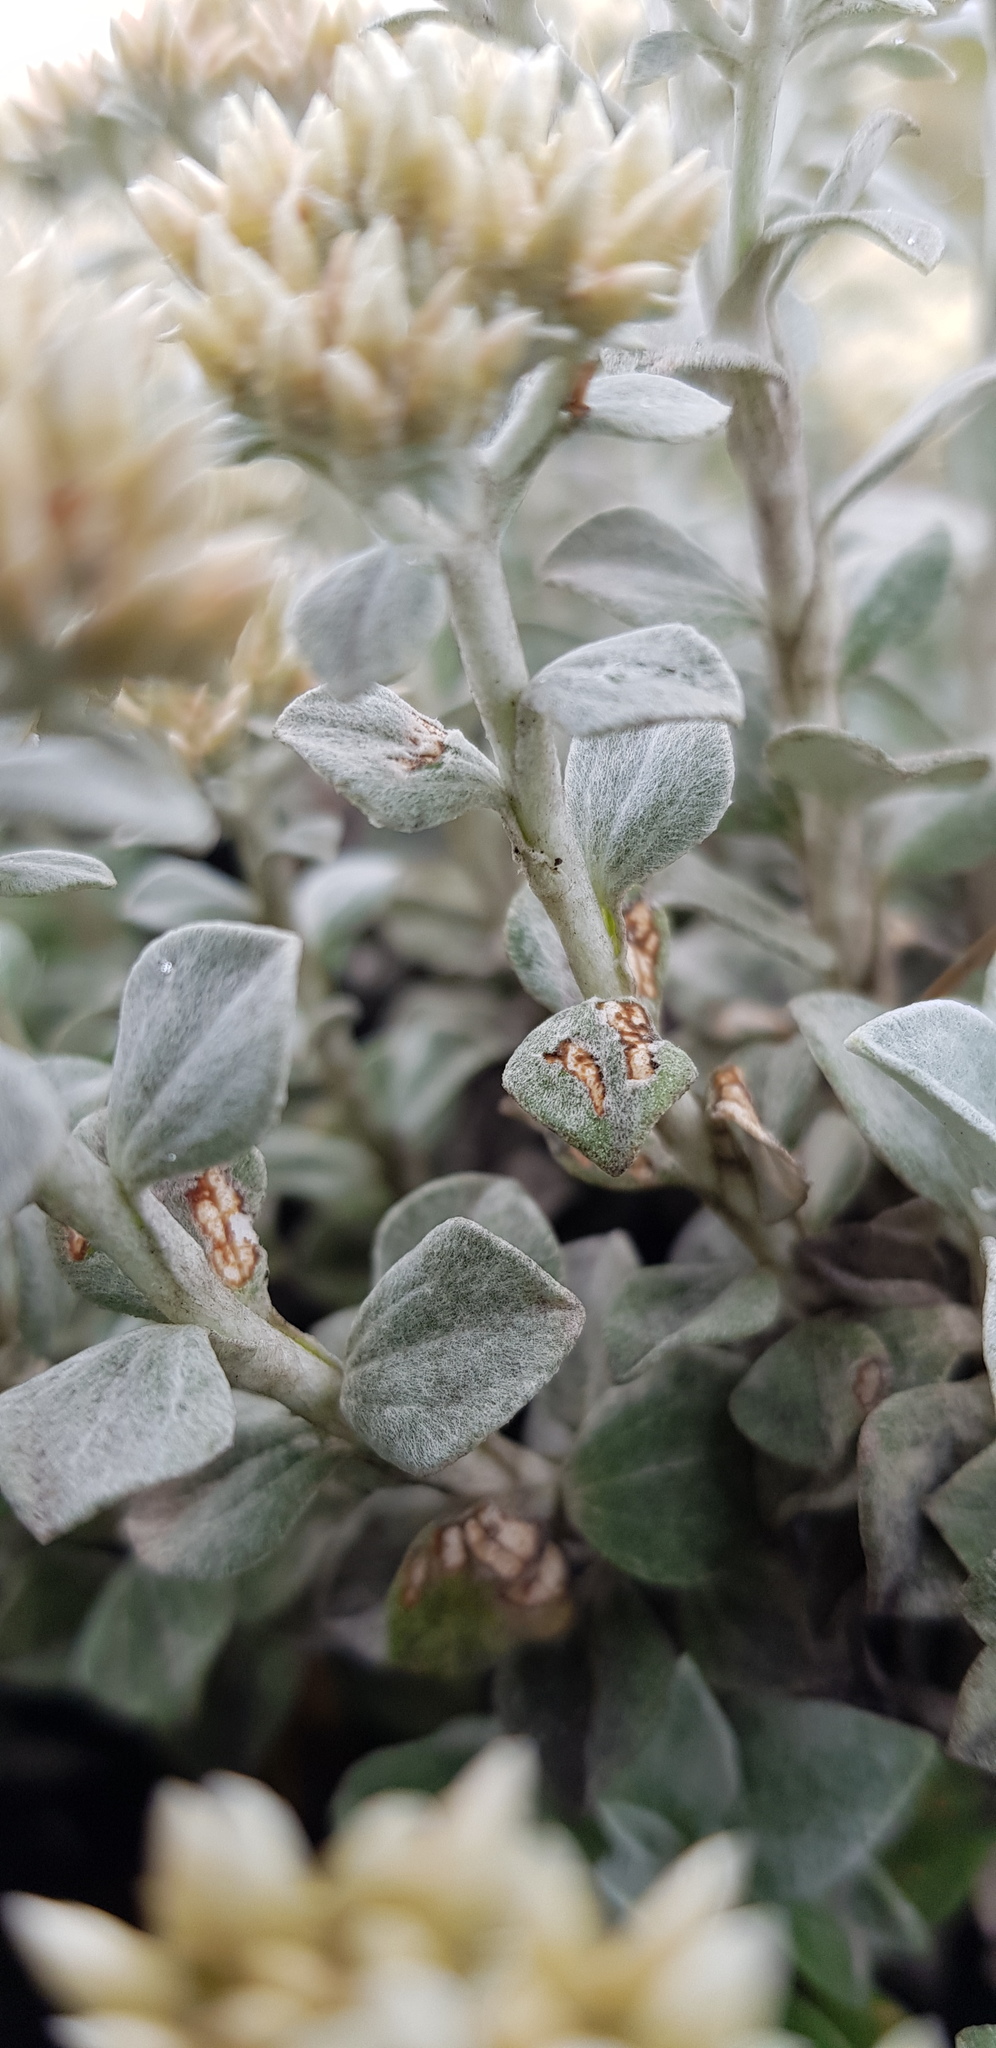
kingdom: Plantae
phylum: Tracheophyta
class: Magnoliopsida
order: Asterales
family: Asteraceae
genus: Helichrysum
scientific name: Helichrysum sutherlandii
